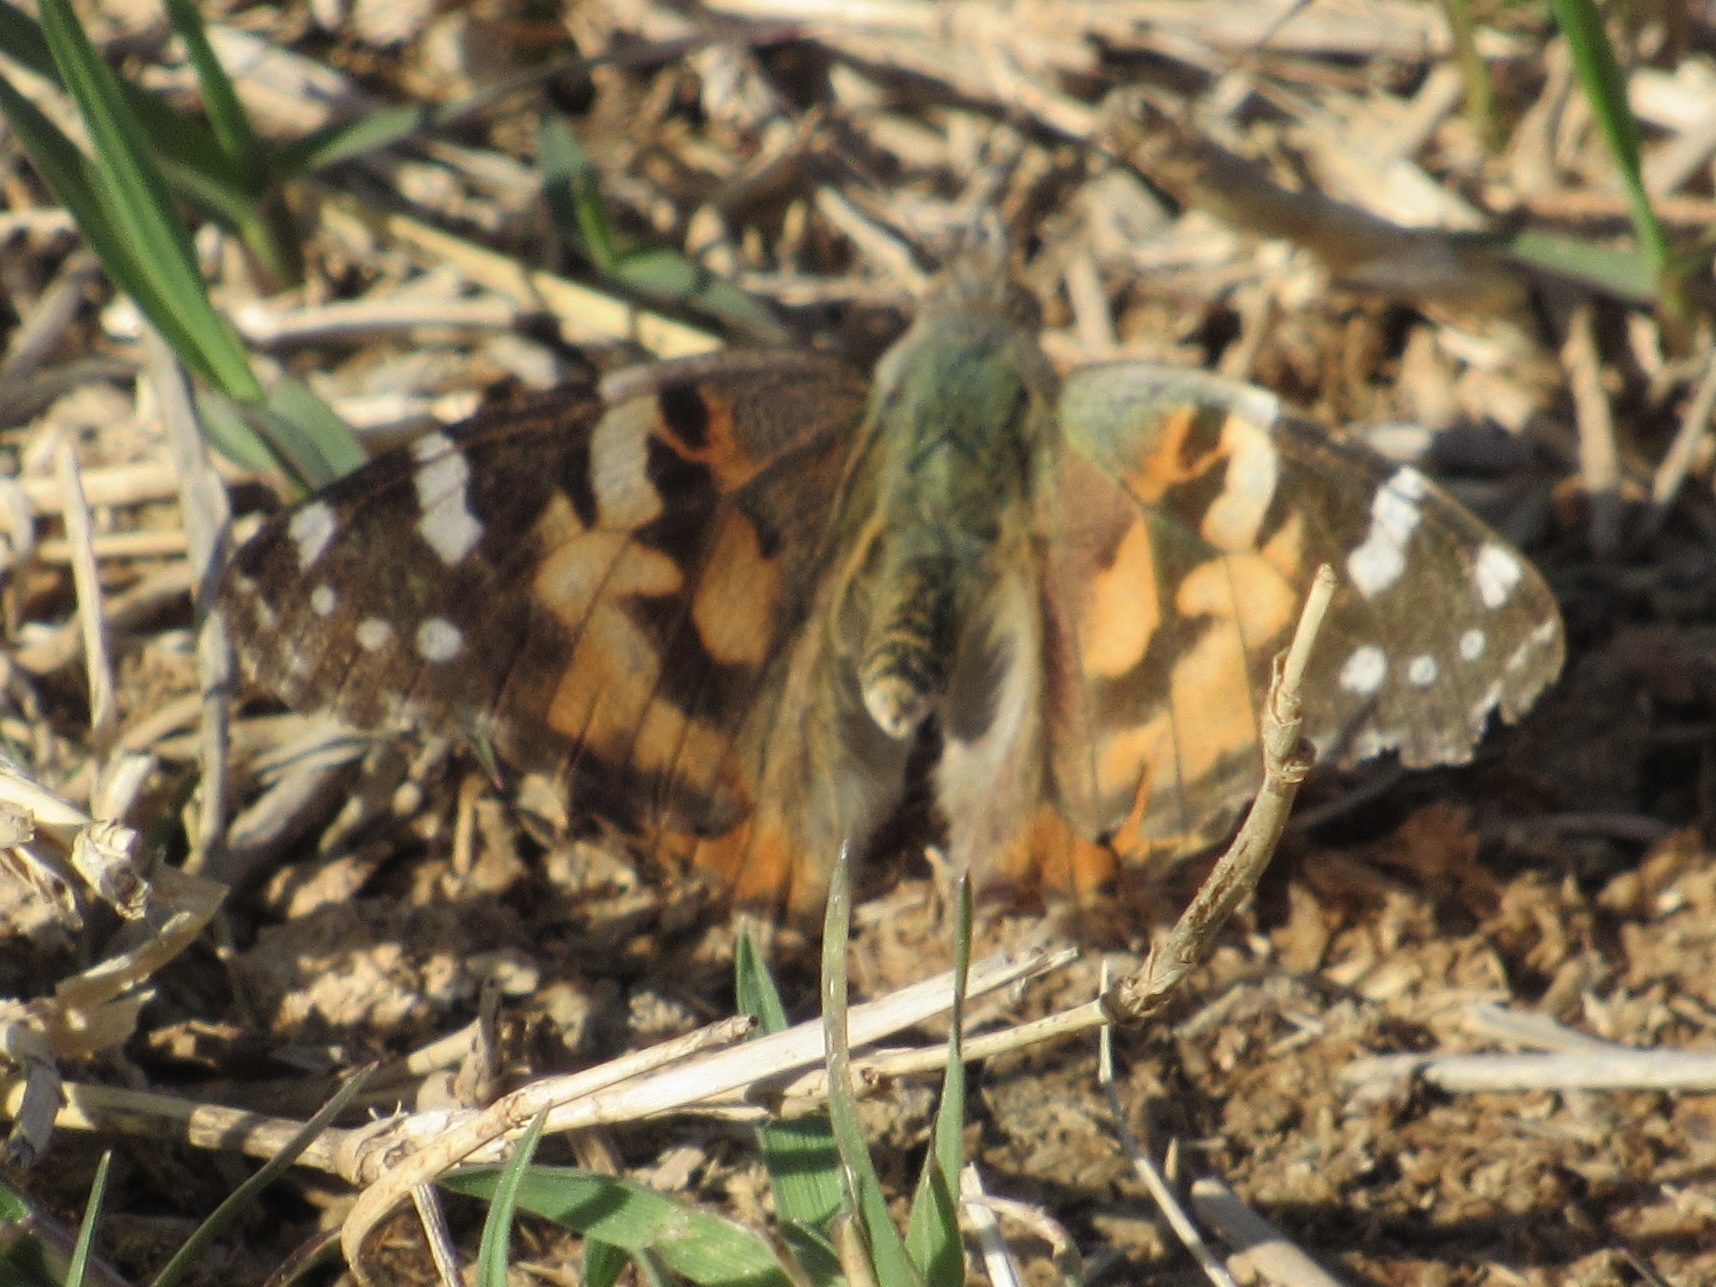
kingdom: Animalia
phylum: Arthropoda
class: Insecta
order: Lepidoptera
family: Nymphalidae
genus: Vanessa
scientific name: Vanessa cardui
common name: Painted lady
